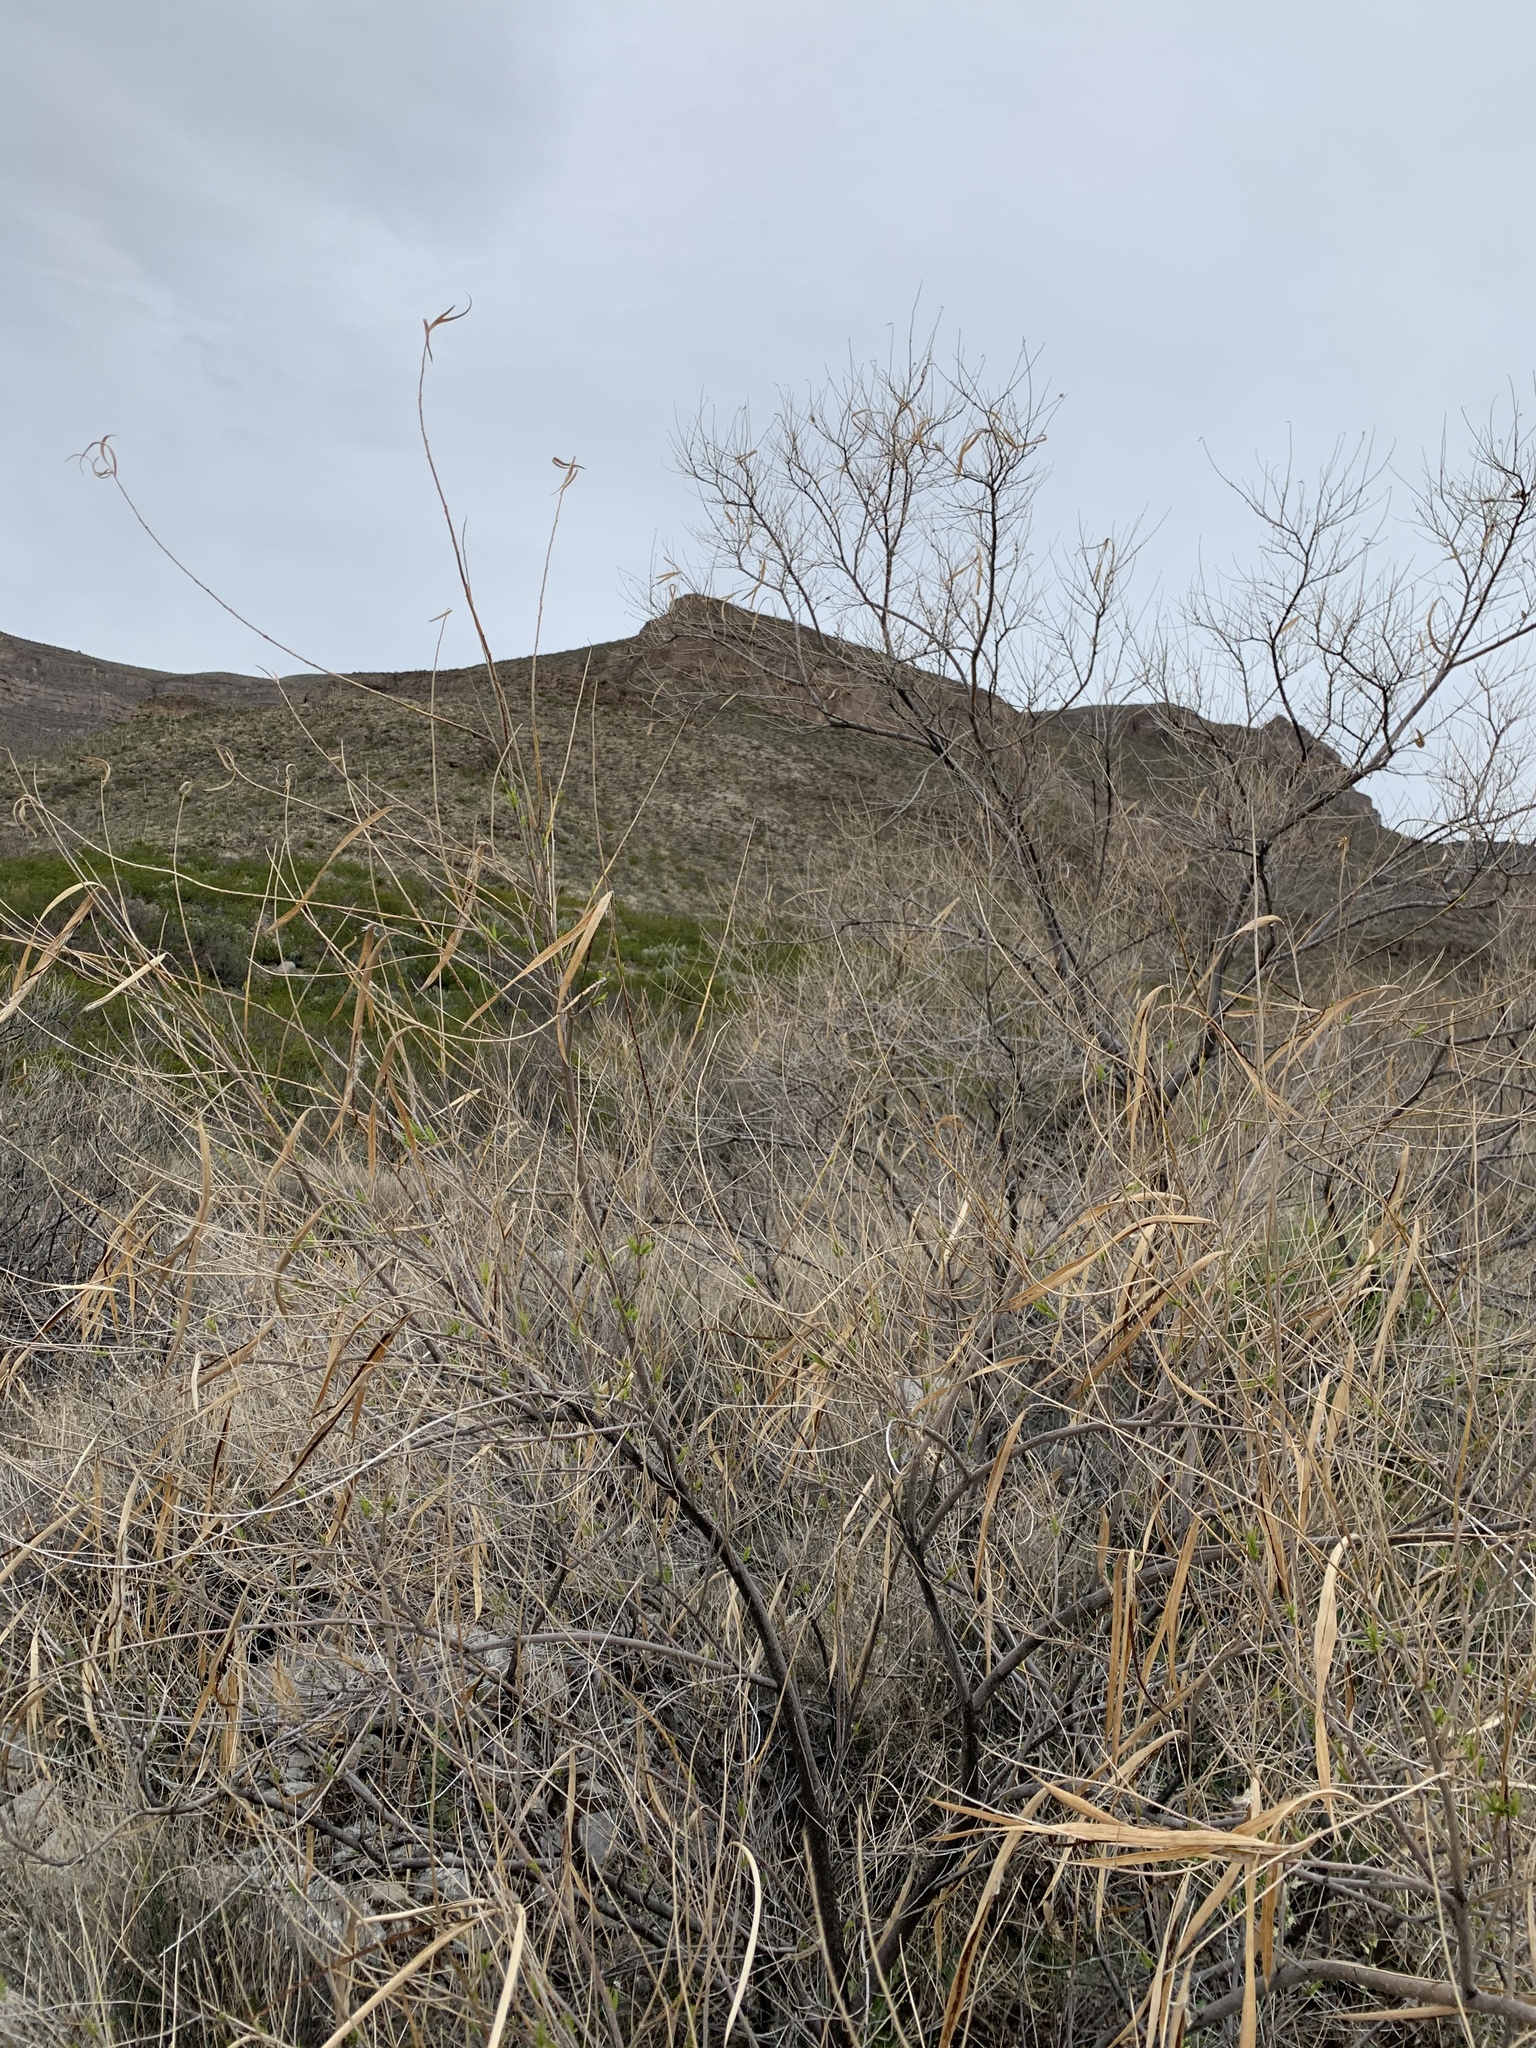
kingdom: Plantae
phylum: Tracheophyta
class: Magnoliopsida
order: Lamiales
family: Bignoniaceae
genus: Chilopsis
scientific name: Chilopsis linearis
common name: Desert-willow
